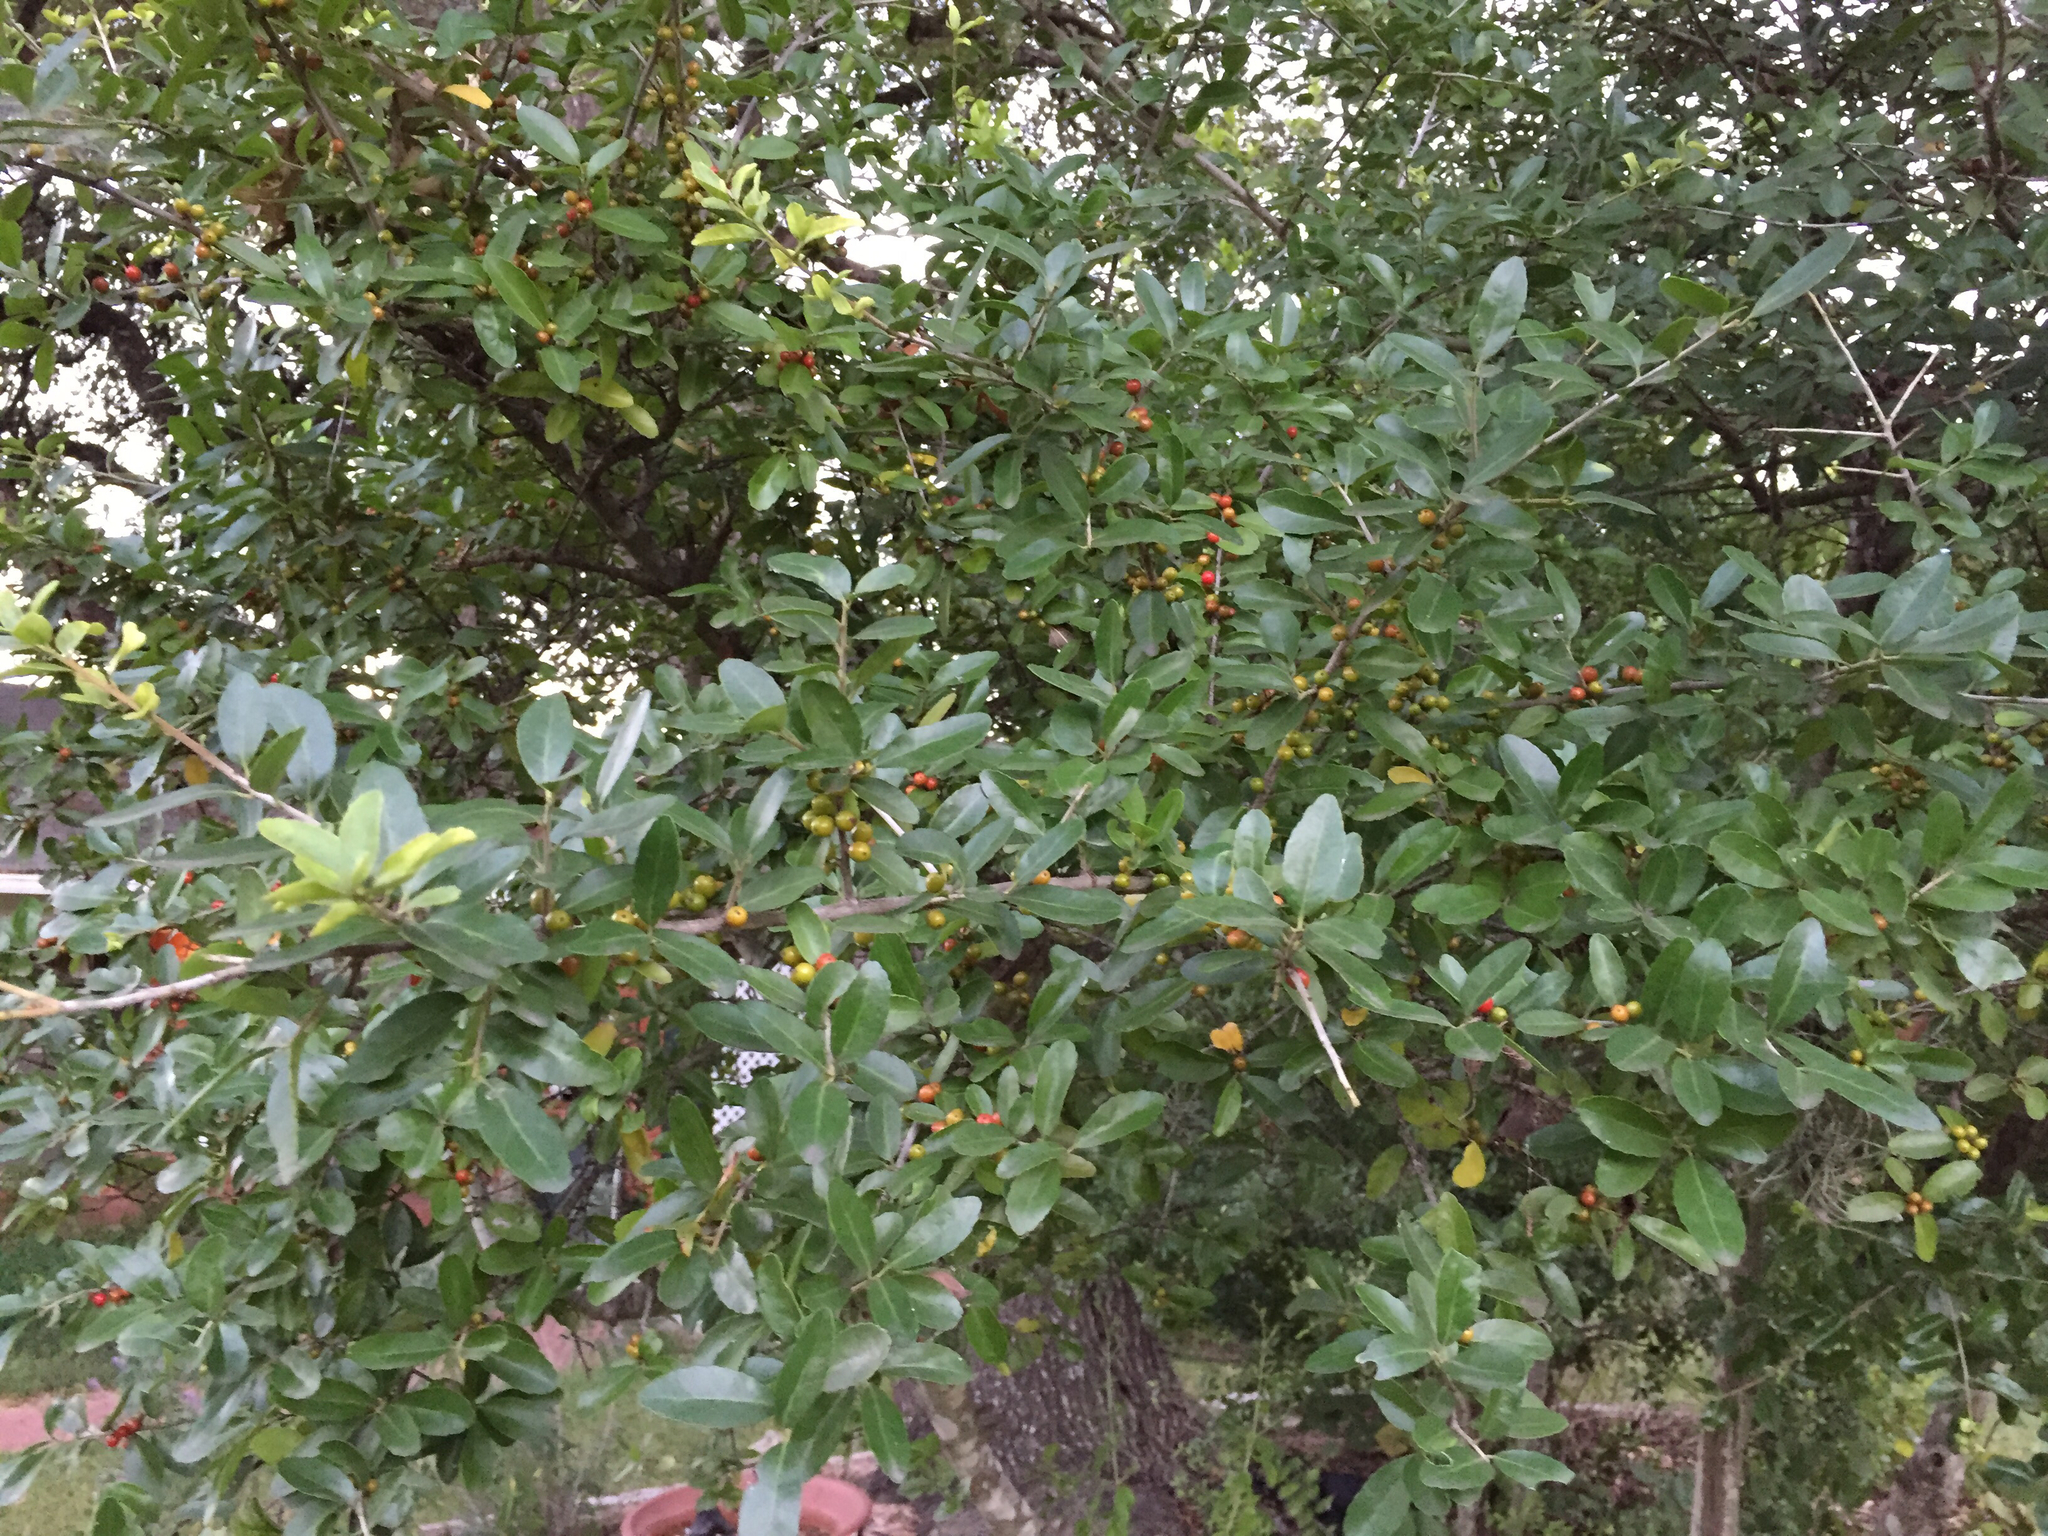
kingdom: Plantae
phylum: Tracheophyta
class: Magnoliopsida
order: Aquifoliales
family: Aquifoliaceae
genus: Ilex
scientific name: Ilex vomitoria
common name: Yaupon holly
